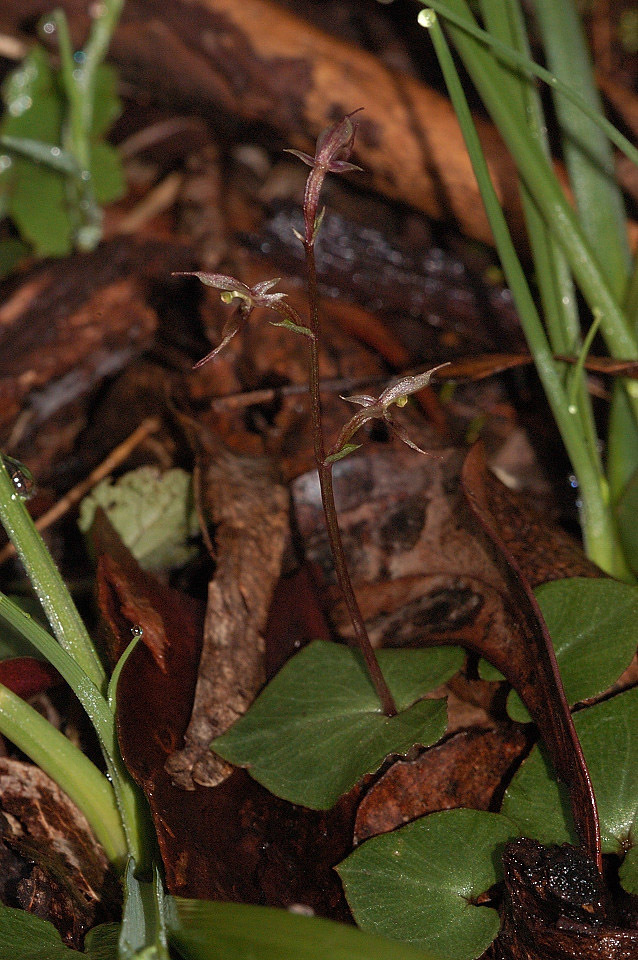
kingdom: Plantae
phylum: Tracheophyta
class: Liliopsida
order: Asparagales
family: Orchidaceae
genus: Acianthus
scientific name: Acianthus pusillus
